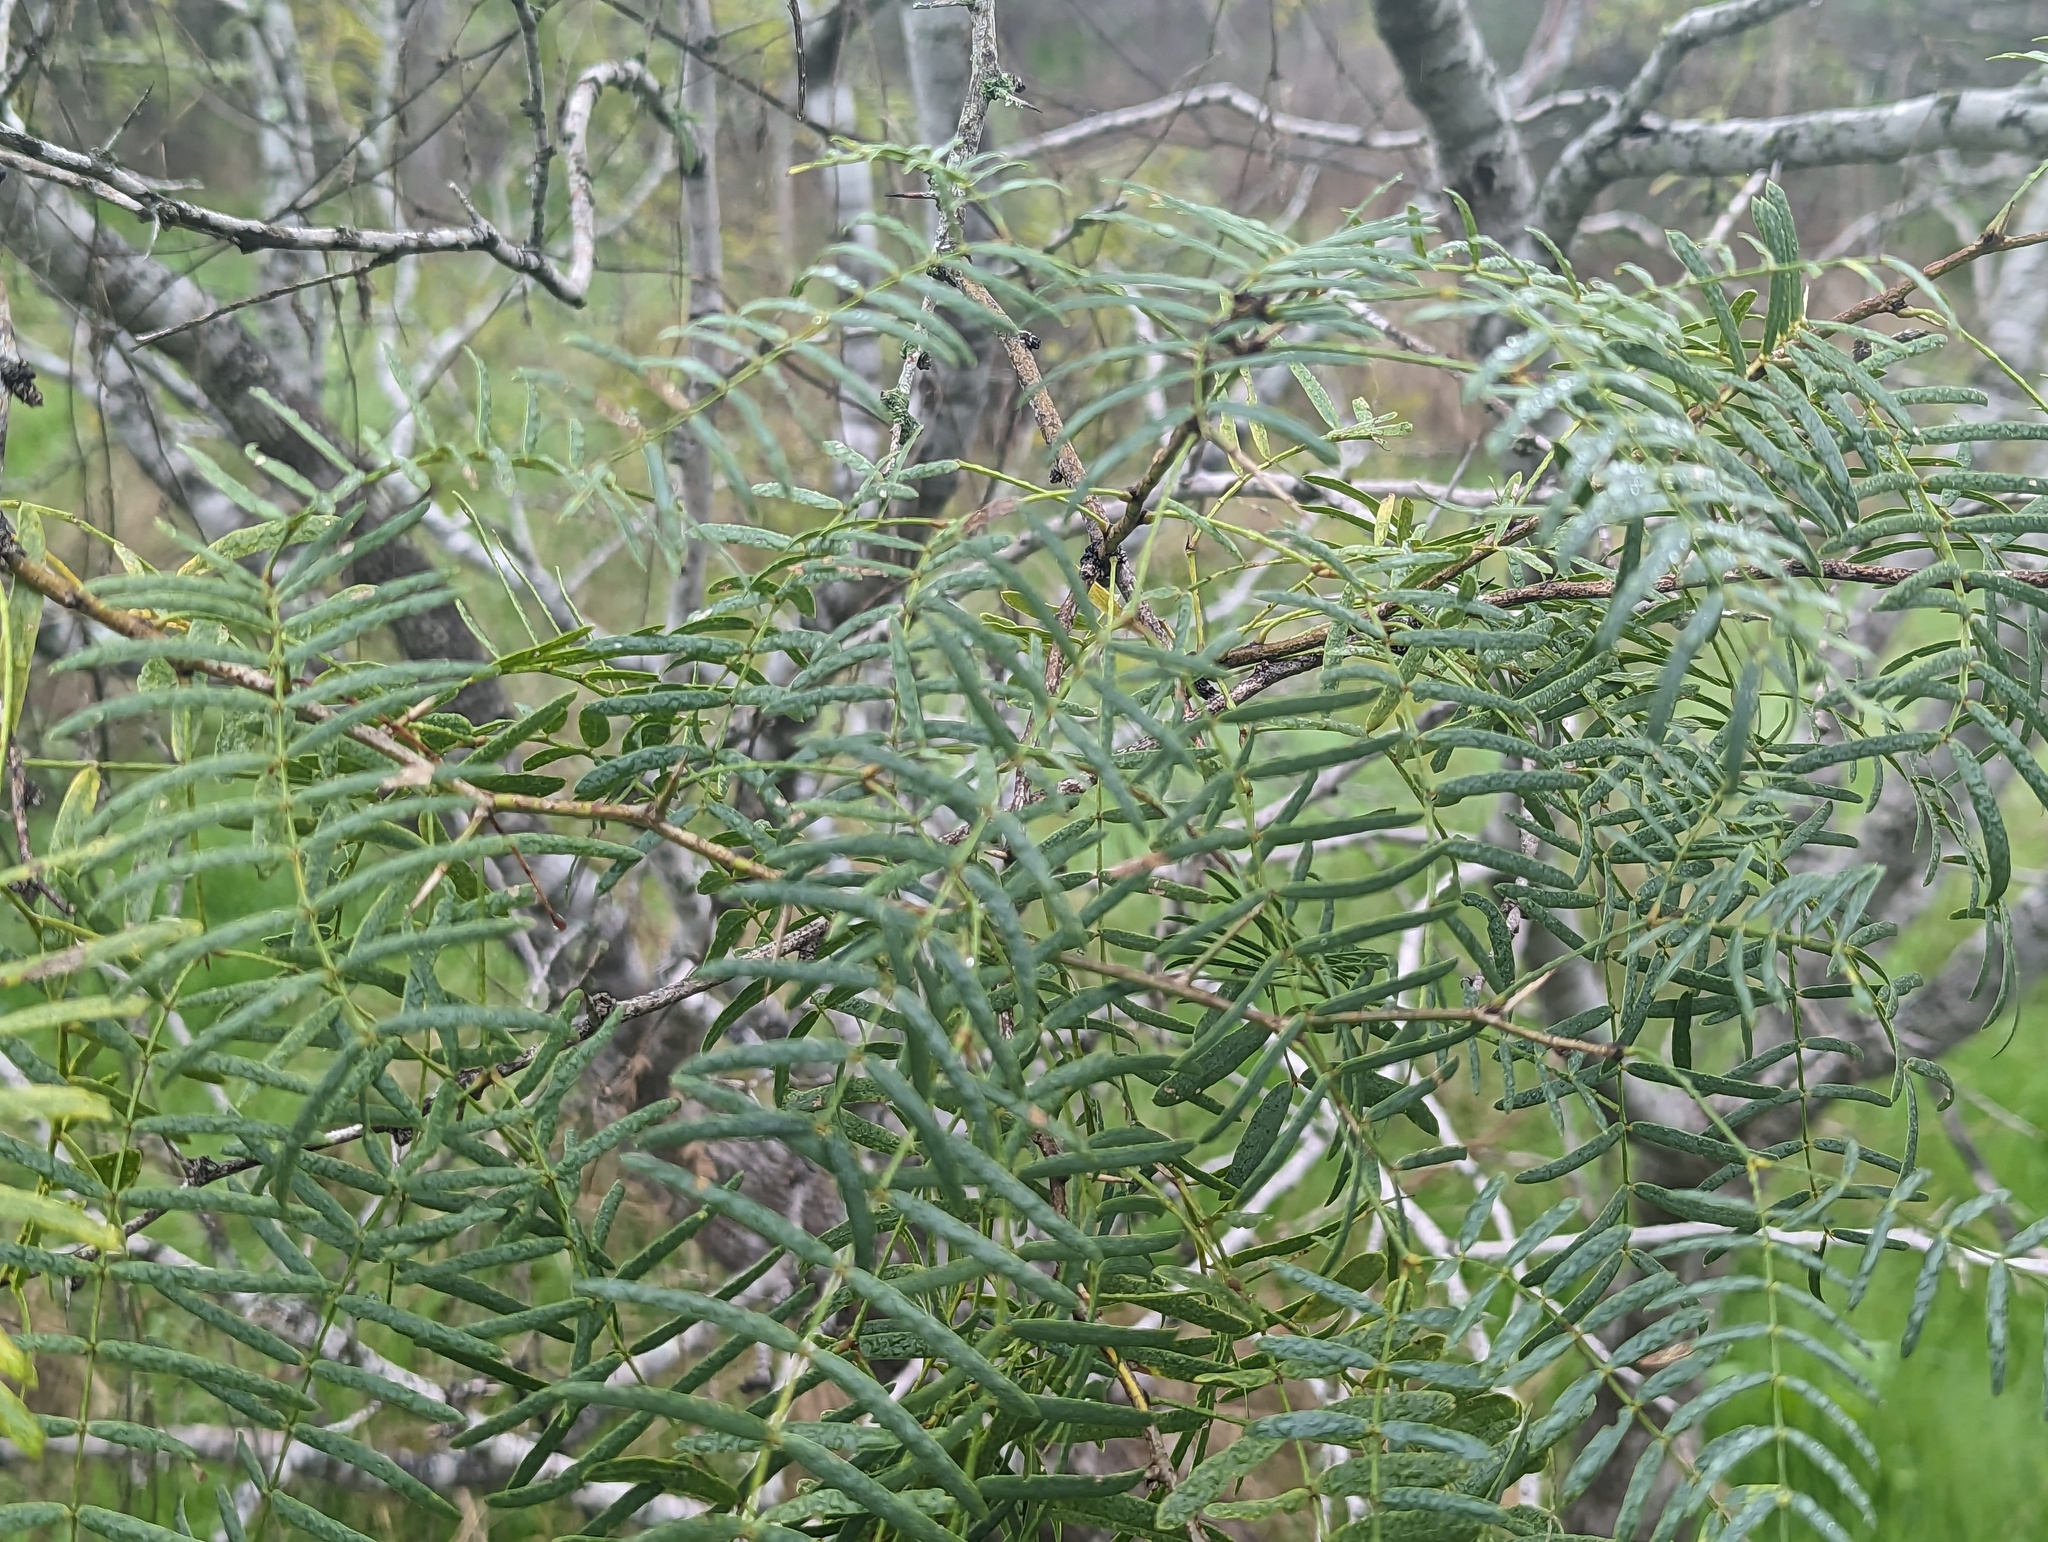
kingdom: Plantae
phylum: Tracheophyta
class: Magnoliopsida
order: Fabales
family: Fabaceae
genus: Prosopis
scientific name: Prosopis glandulosa
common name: Honey mesquite
